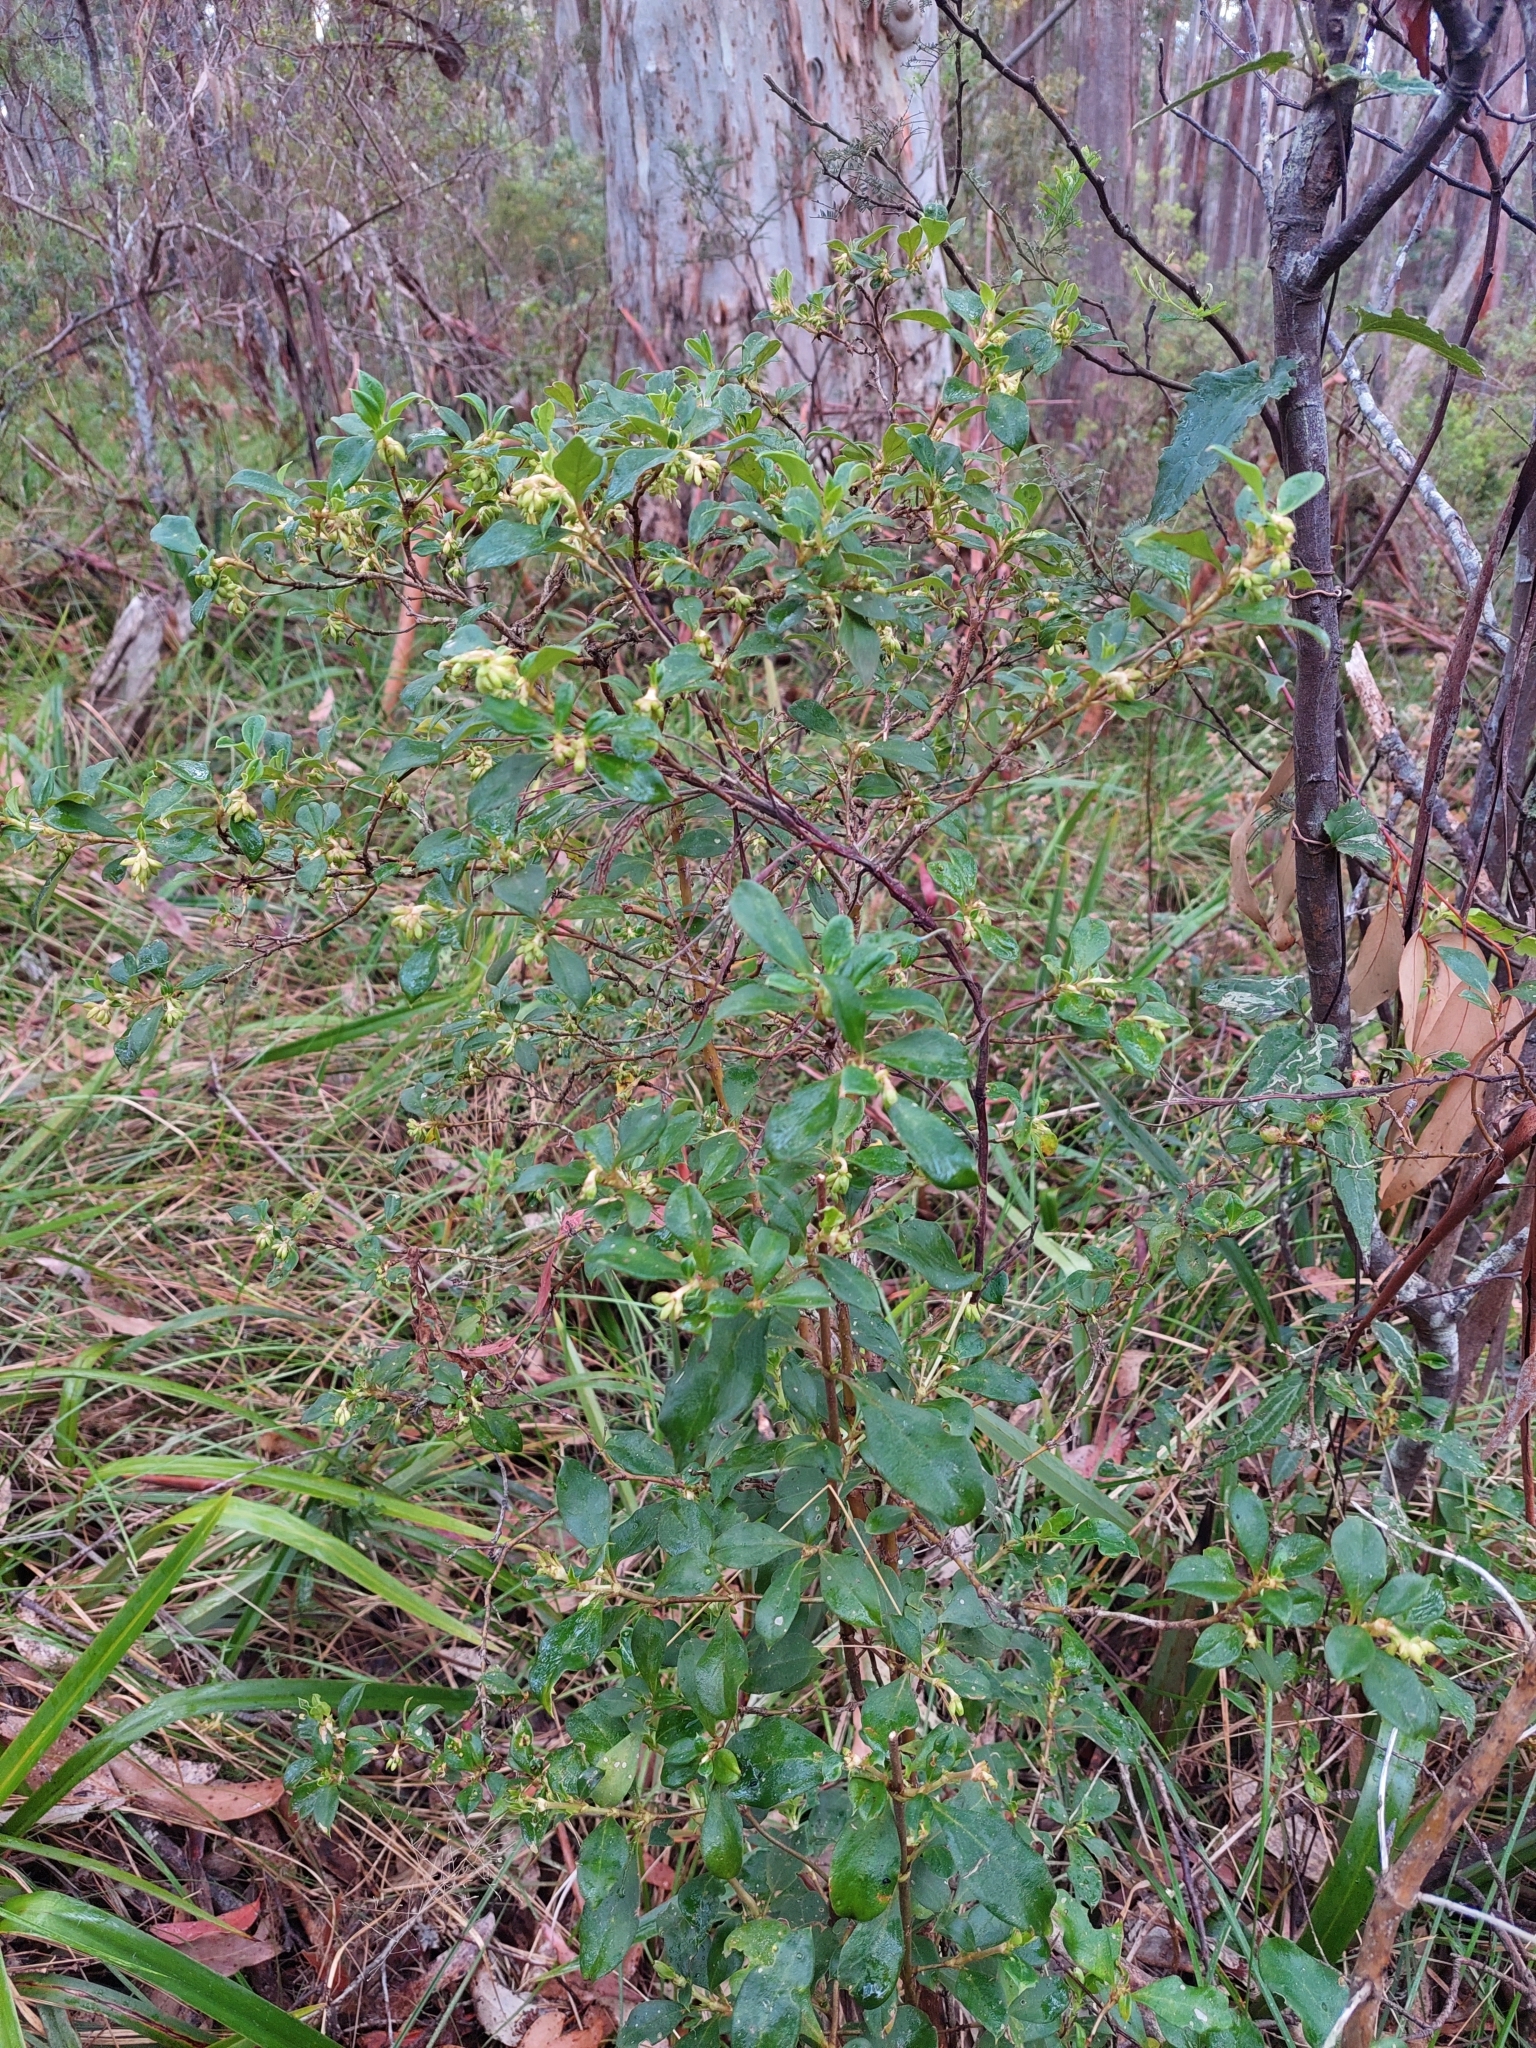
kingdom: Plantae
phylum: Tracheophyta
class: Magnoliopsida
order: Gentianales
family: Rubiaceae
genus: Coprosma
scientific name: Coprosma hirtella
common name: Rough coprosma
